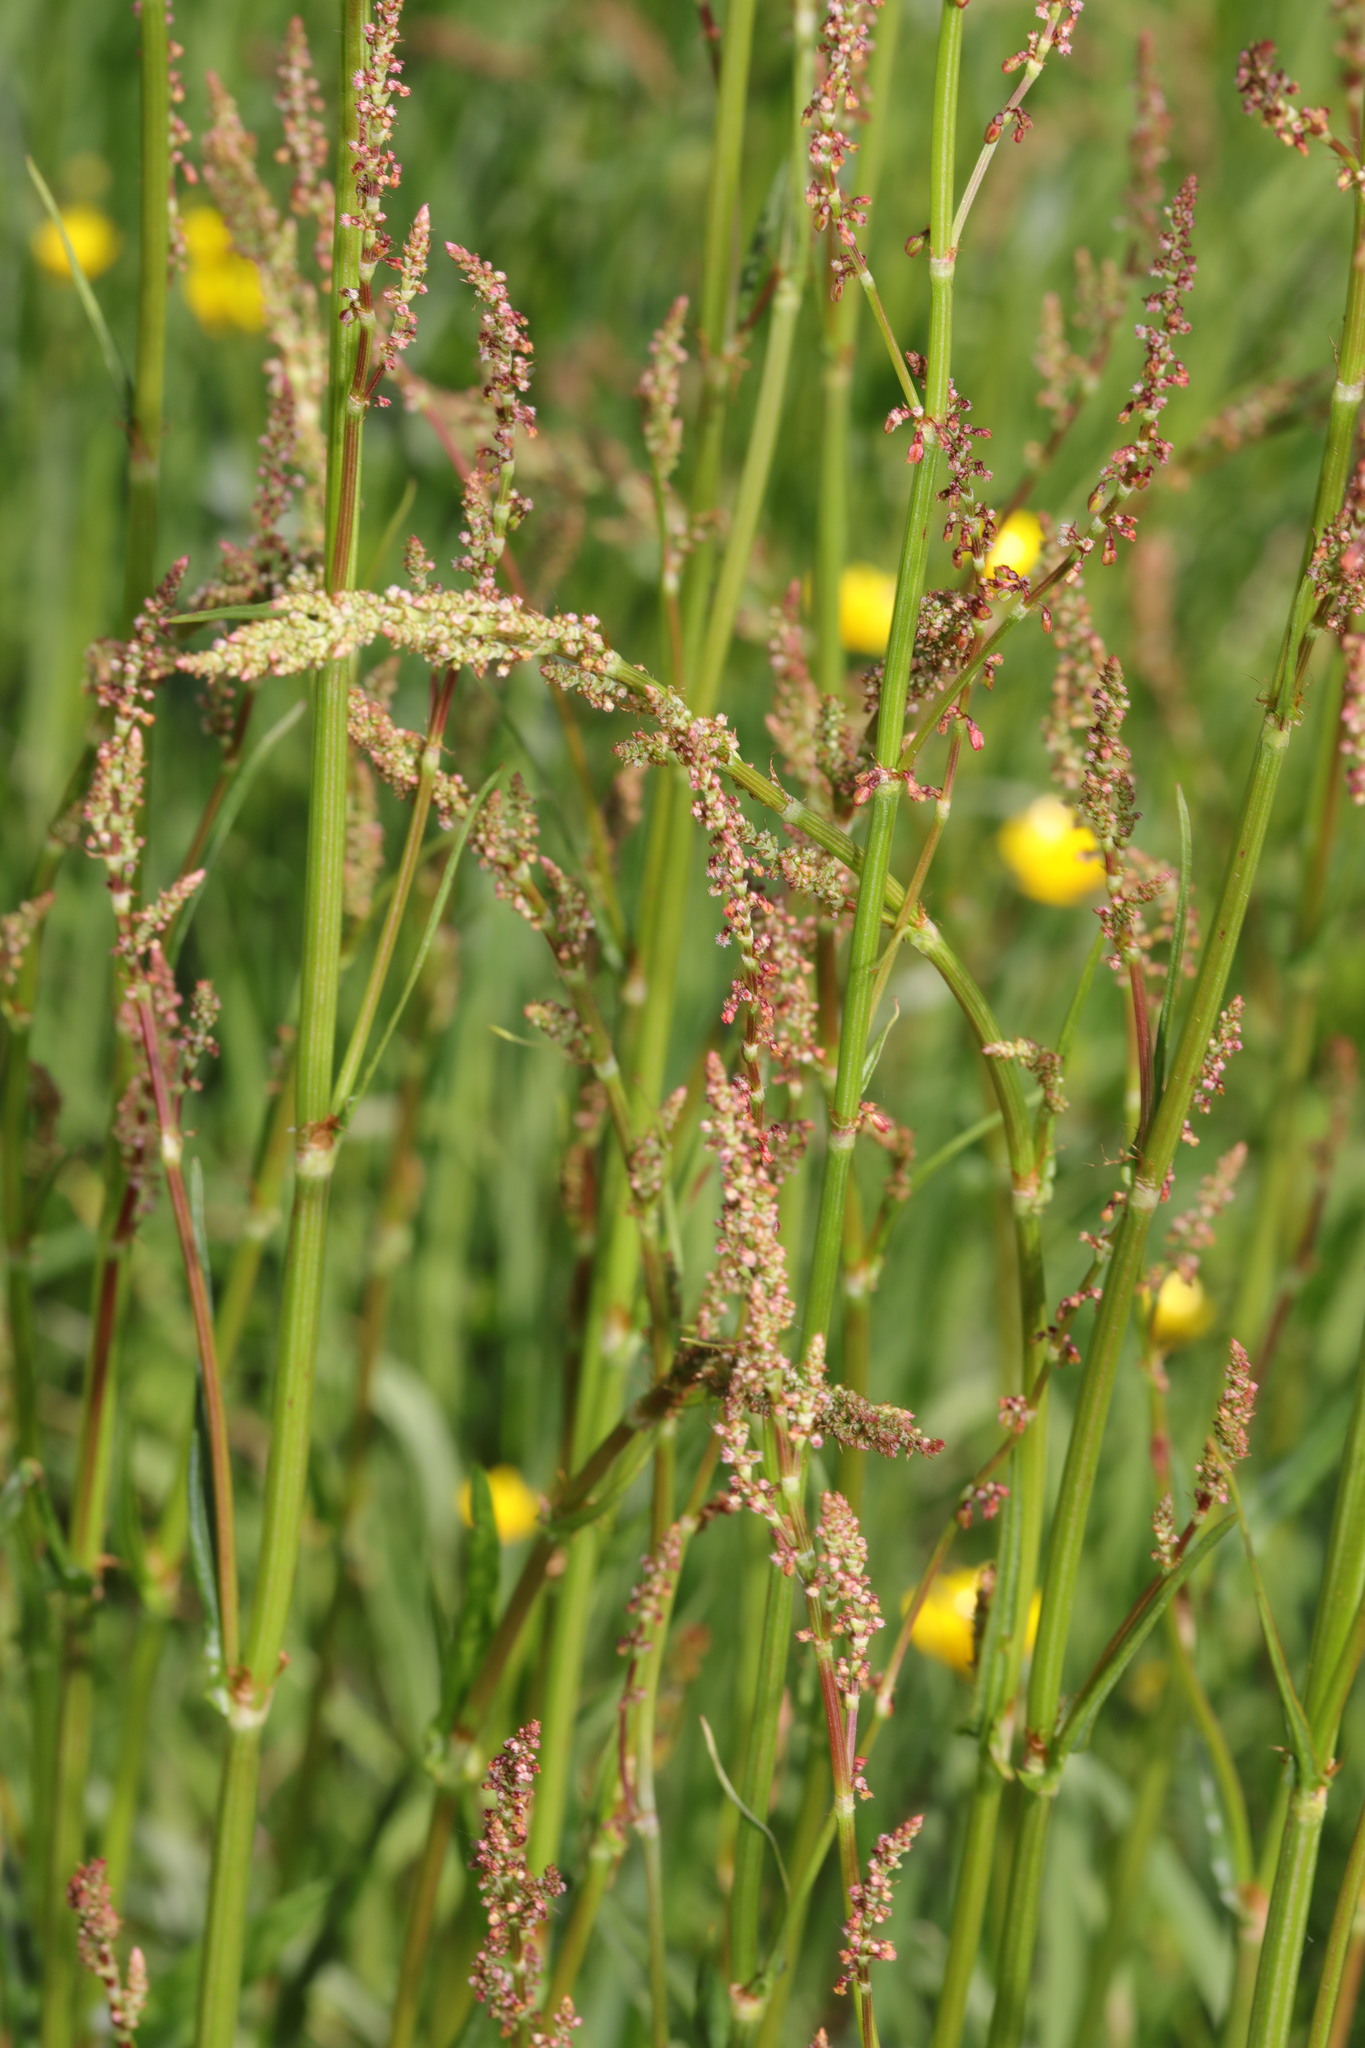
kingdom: Plantae
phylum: Tracheophyta
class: Magnoliopsida
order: Caryophyllales
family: Polygonaceae
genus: Rumex
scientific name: Rumex acetosa
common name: Garden sorrel
